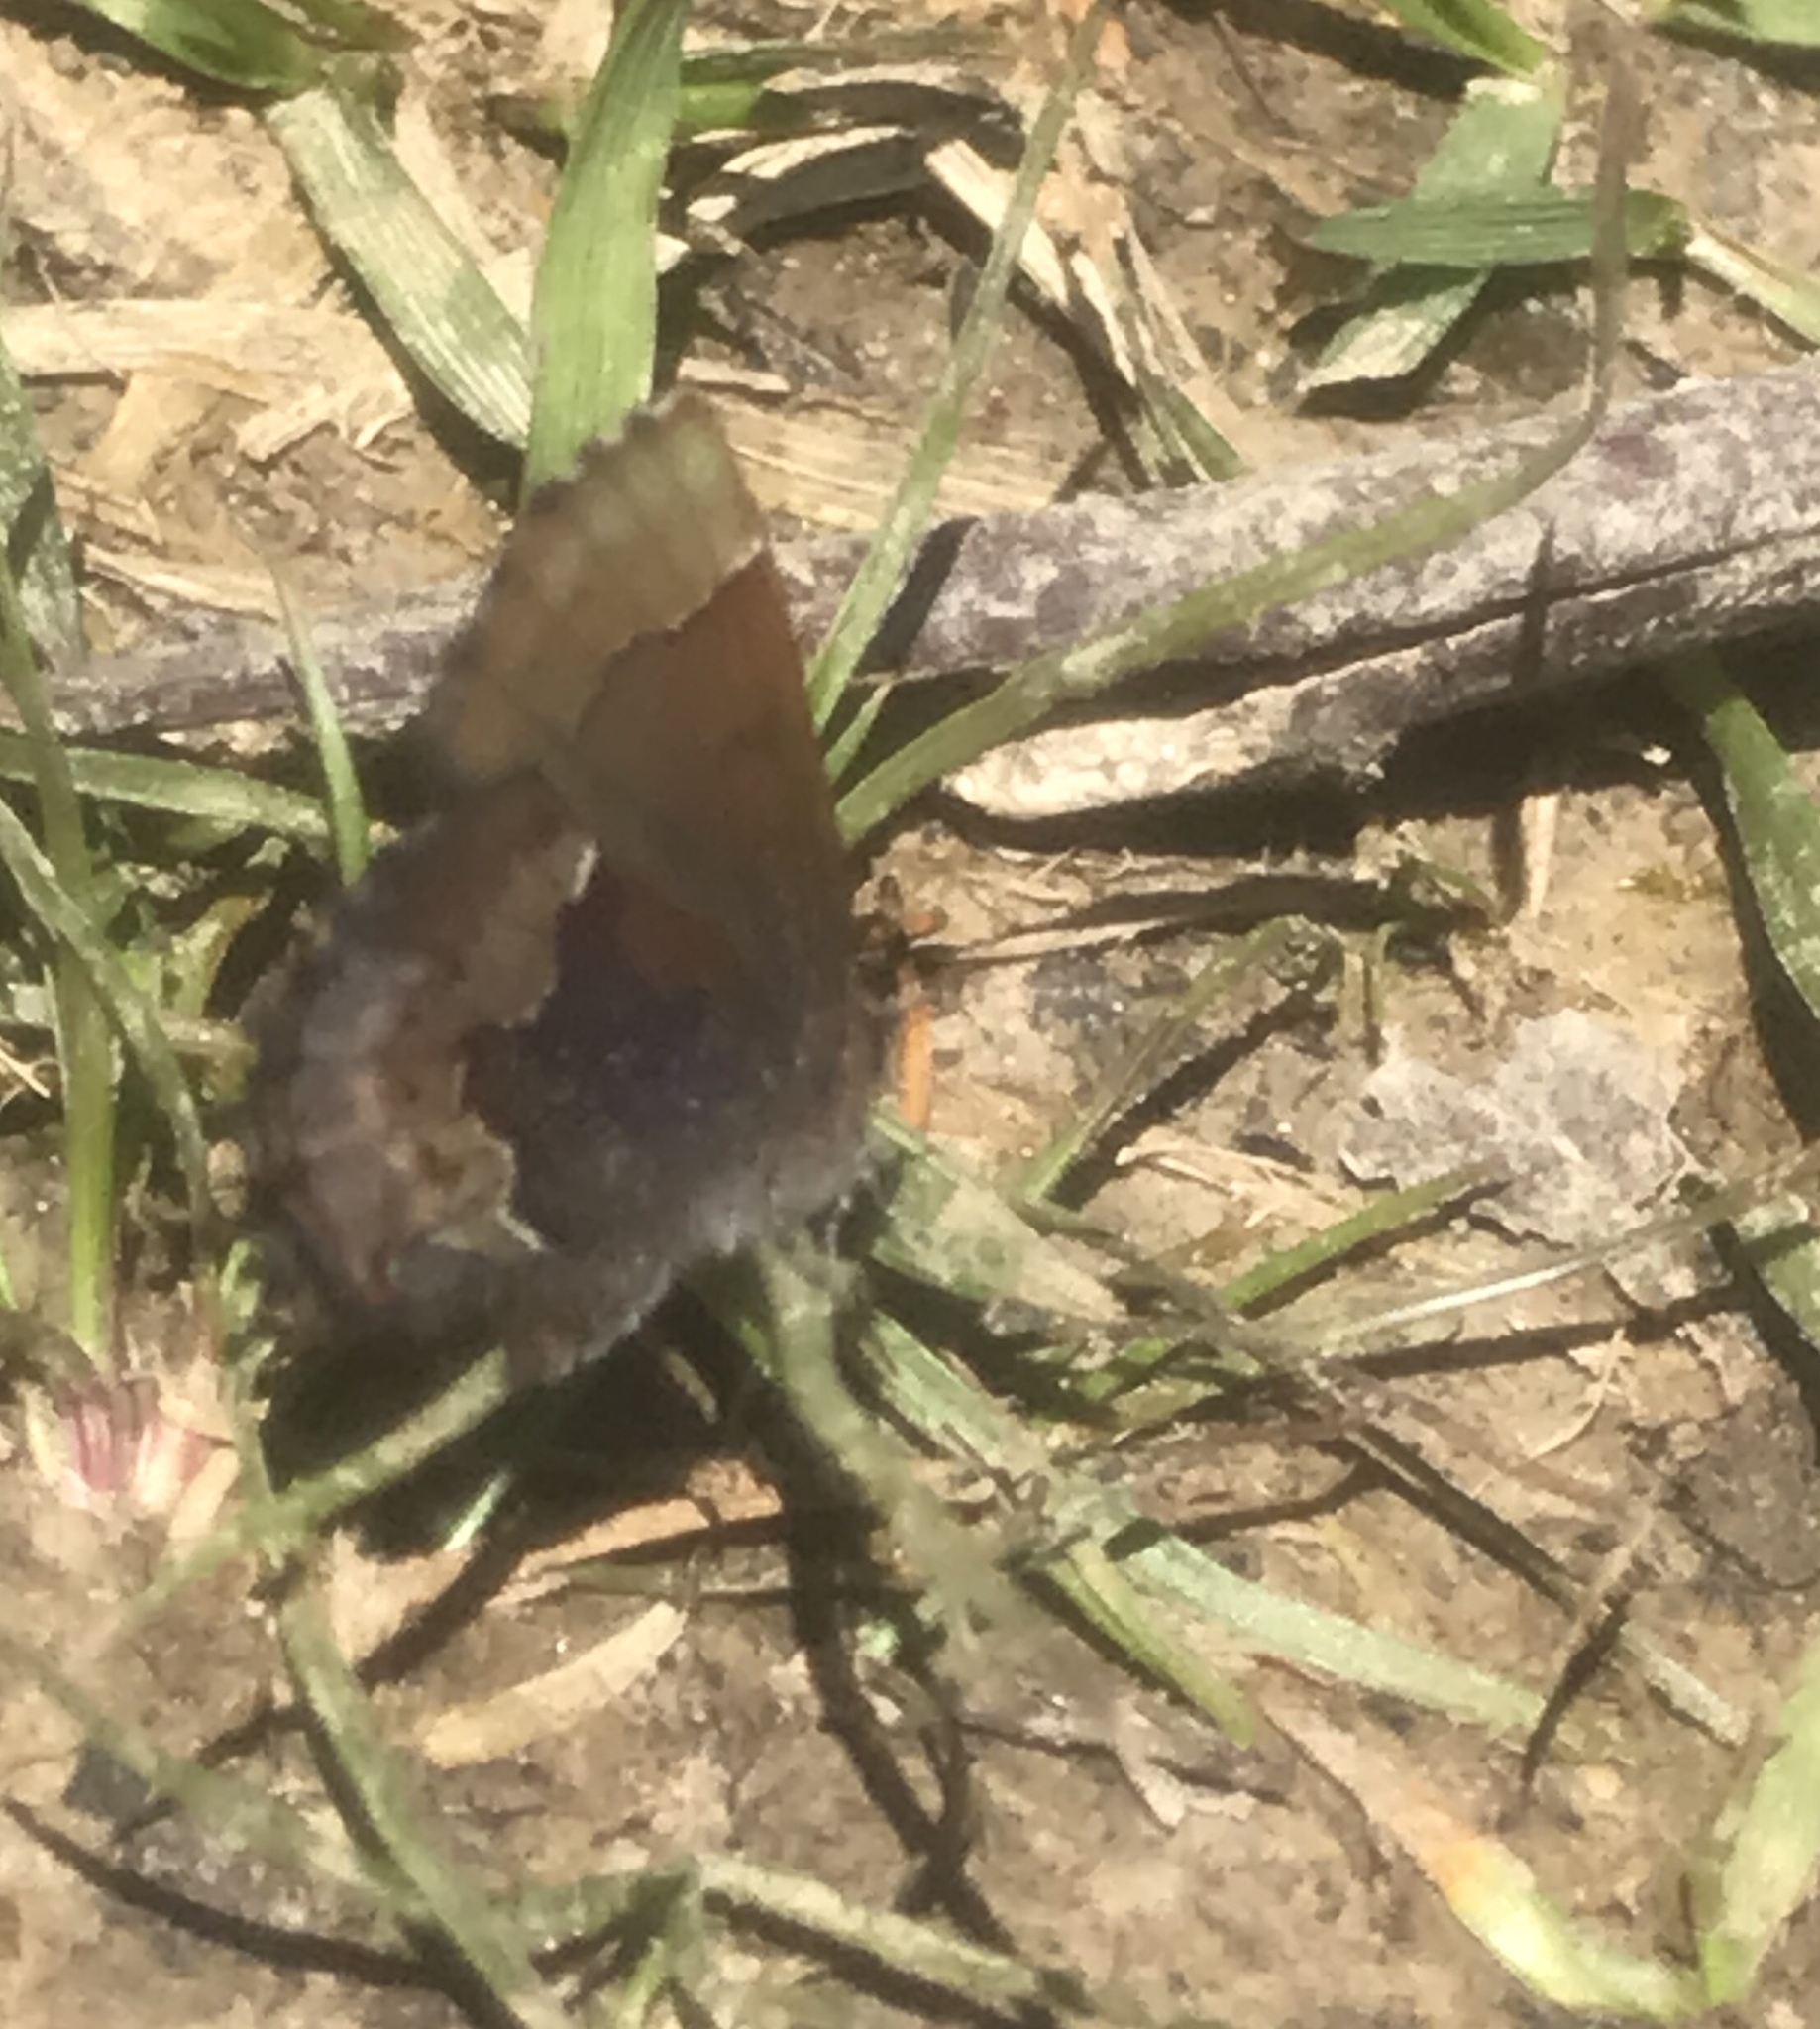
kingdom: Animalia
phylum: Arthropoda
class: Insecta
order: Lepidoptera
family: Lycaenidae
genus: Incisalia
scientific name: Incisalia henrici
